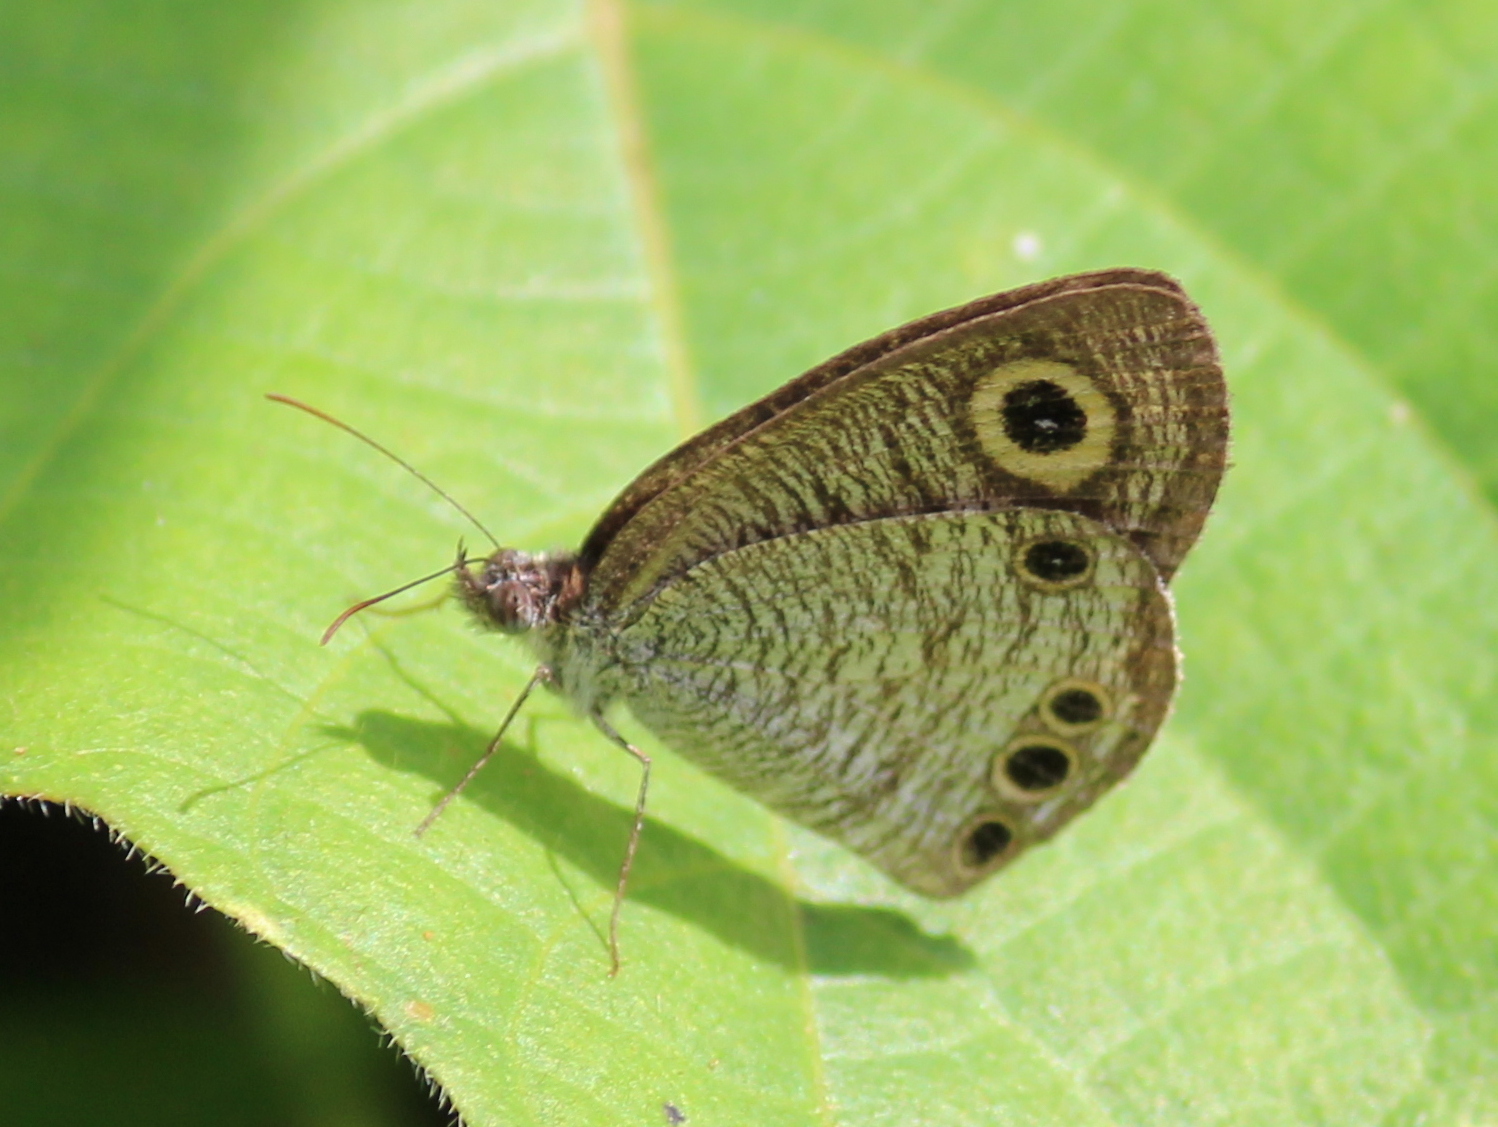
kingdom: Animalia
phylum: Arthropoda
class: Insecta
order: Lepidoptera
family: Nymphalidae
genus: Ypthima
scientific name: Ypthima huebneri
